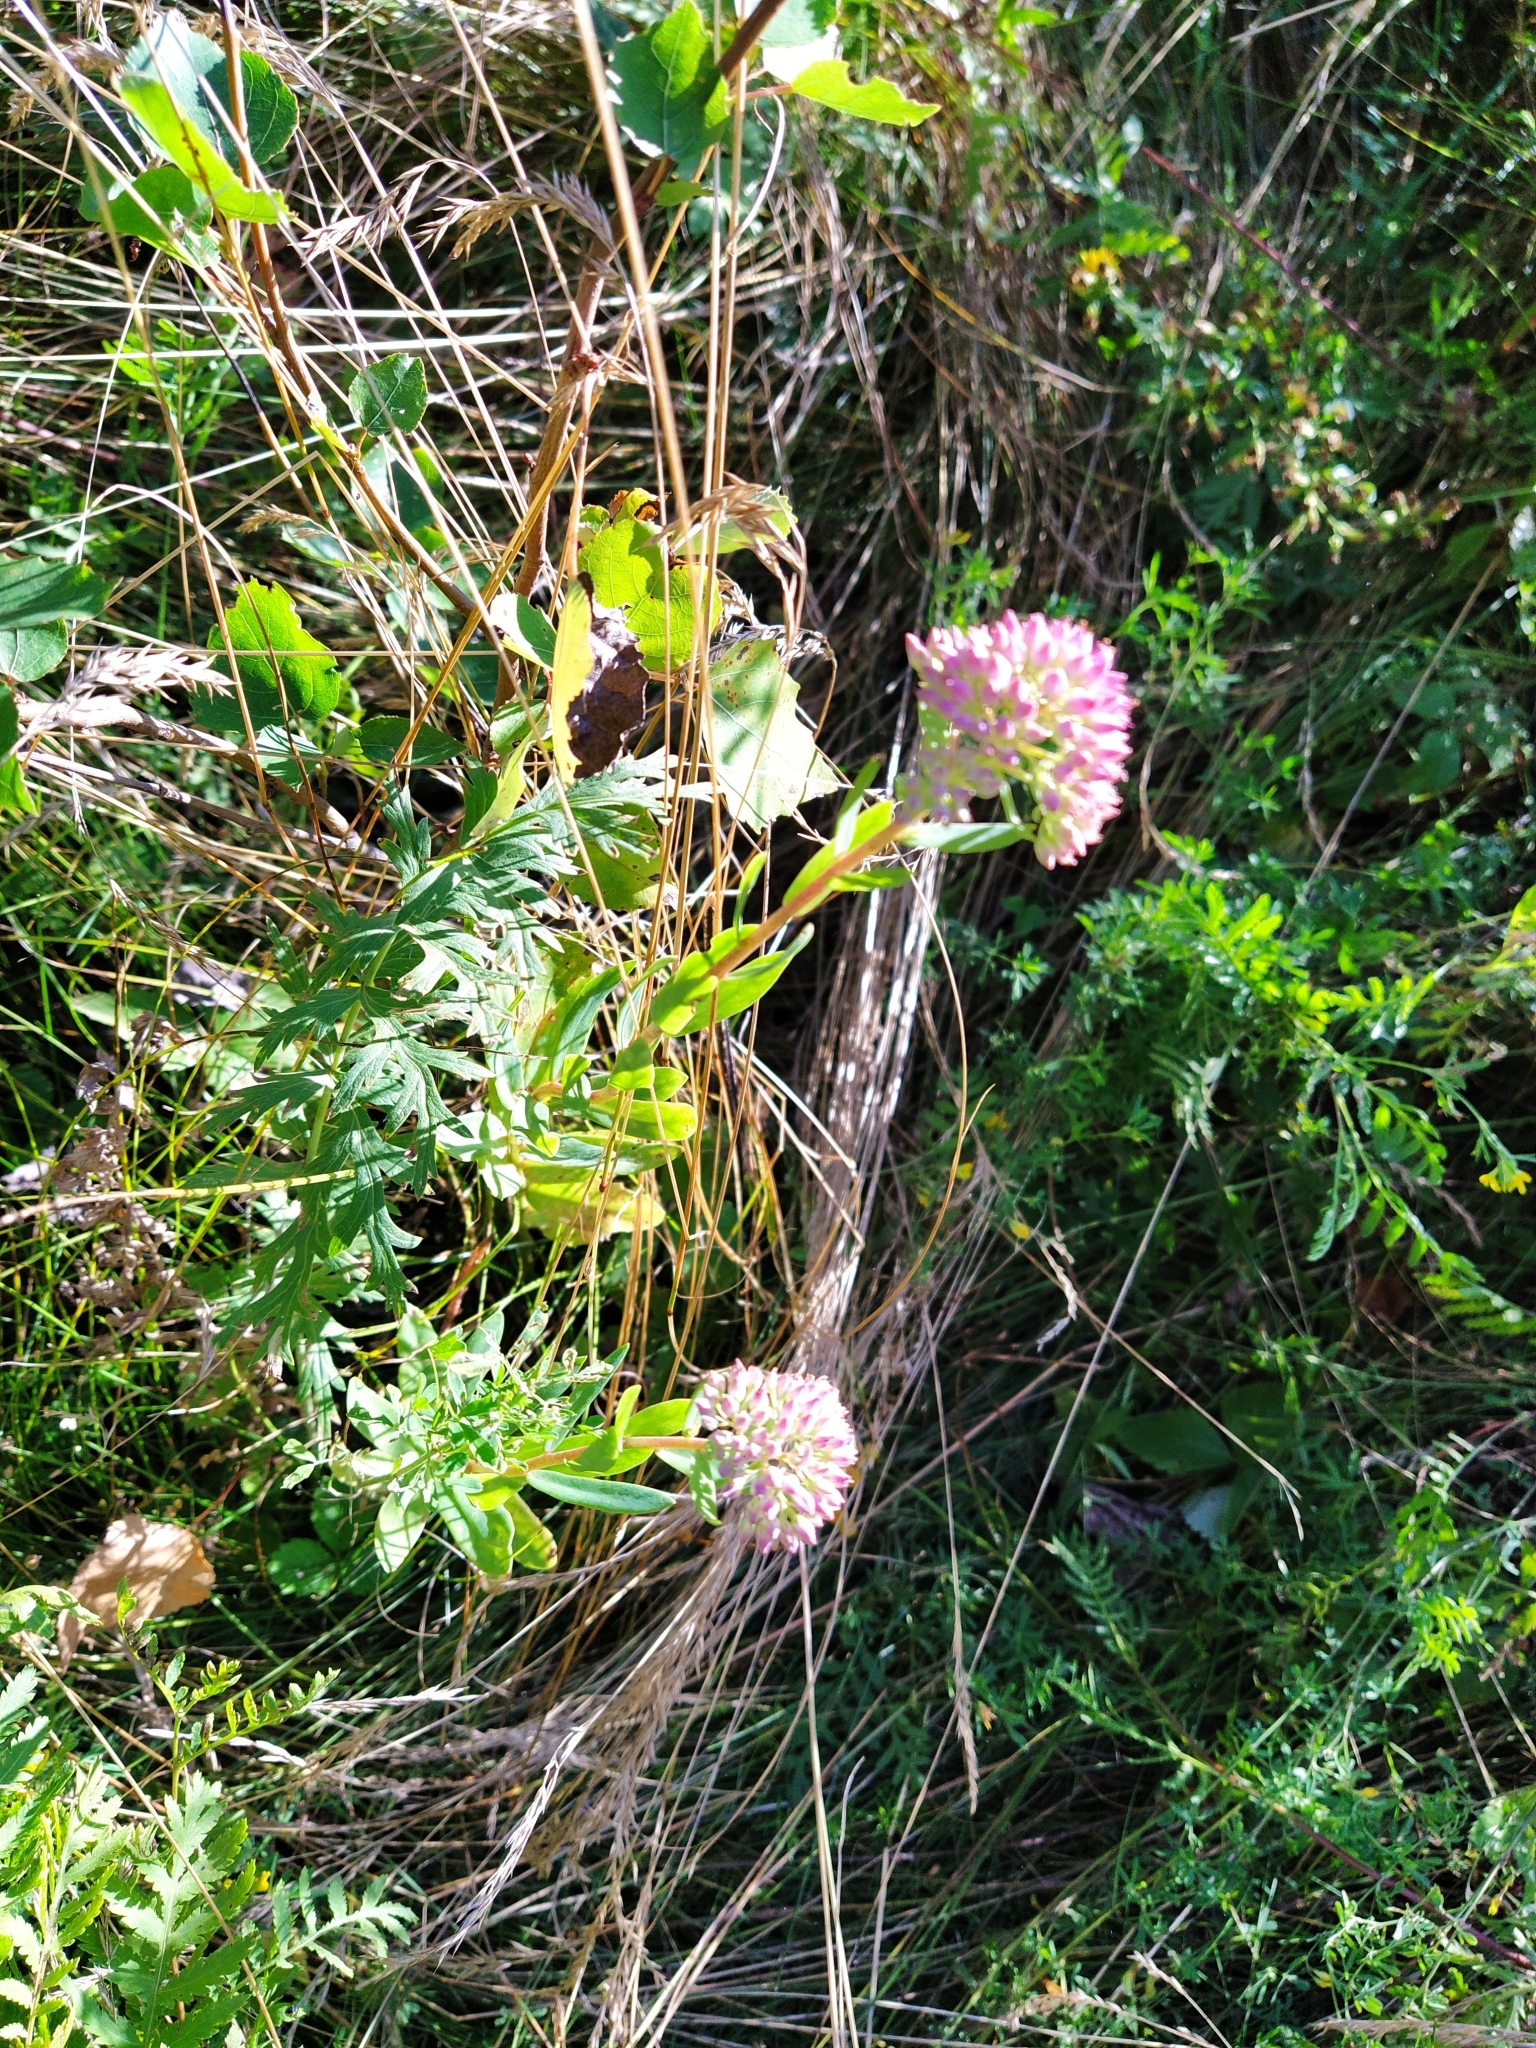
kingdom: Plantae
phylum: Tracheophyta
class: Magnoliopsida
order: Saxifragales
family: Crassulaceae
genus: Hylotelephium
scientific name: Hylotelephium telephium
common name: Live-forever
